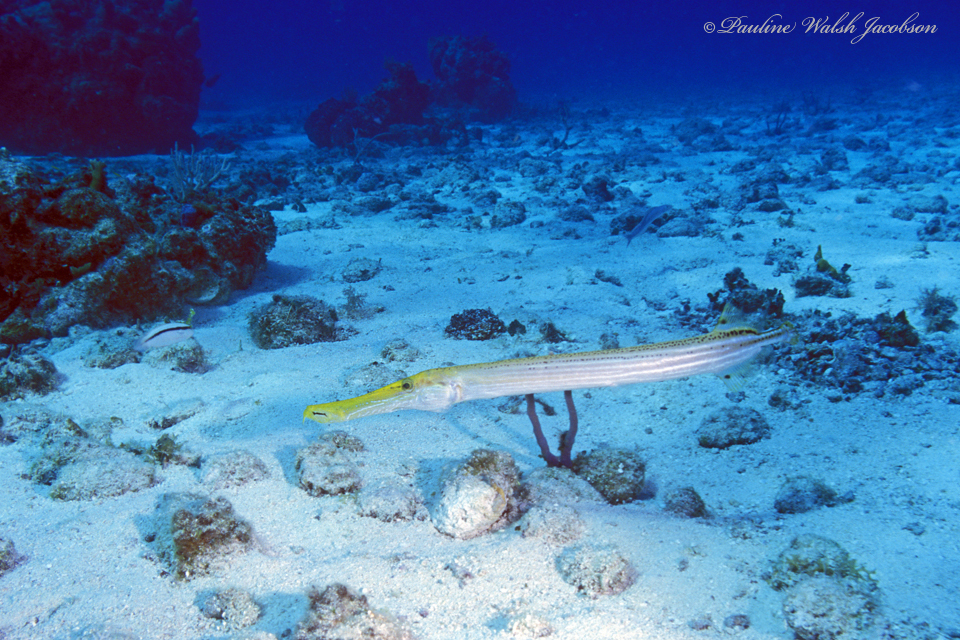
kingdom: Animalia
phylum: Chordata
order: Syngnathiformes
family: Aulostomidae
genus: Aulostomus
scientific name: Aulostomus maculatus
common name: West atlantic trumpetfish
